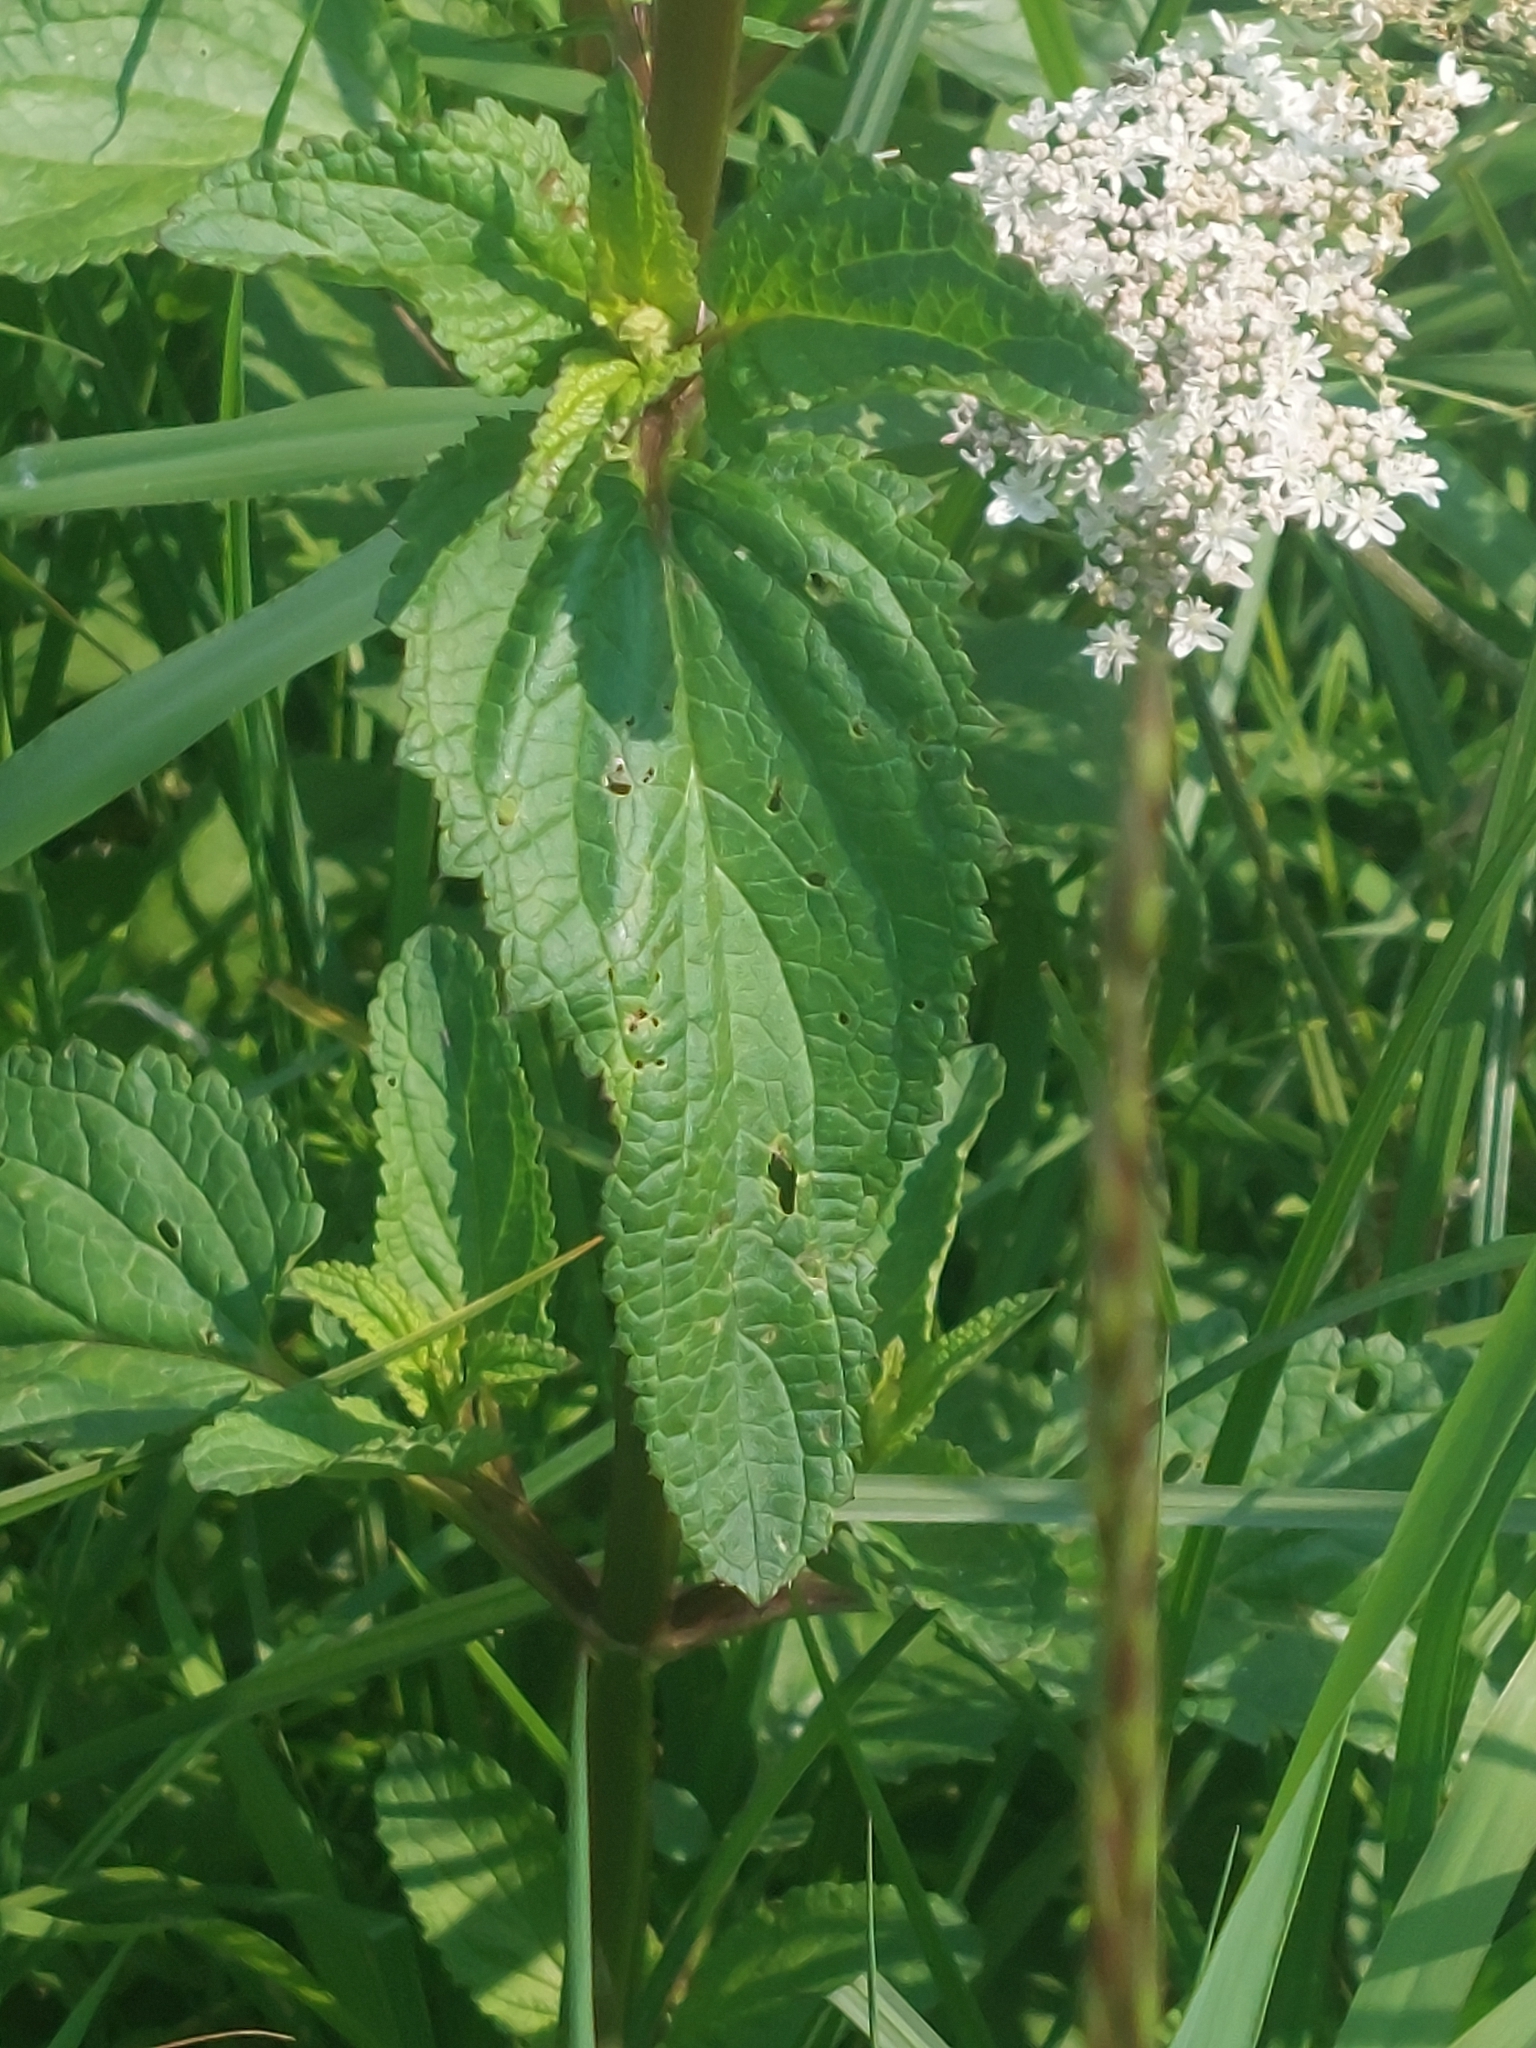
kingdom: Plantae
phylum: Tracheophyta
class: Magnoliopsida
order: Lamiales
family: Scrophulariaceae
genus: Scrophularia
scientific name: Scrophularia auriculata
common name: Water betony
